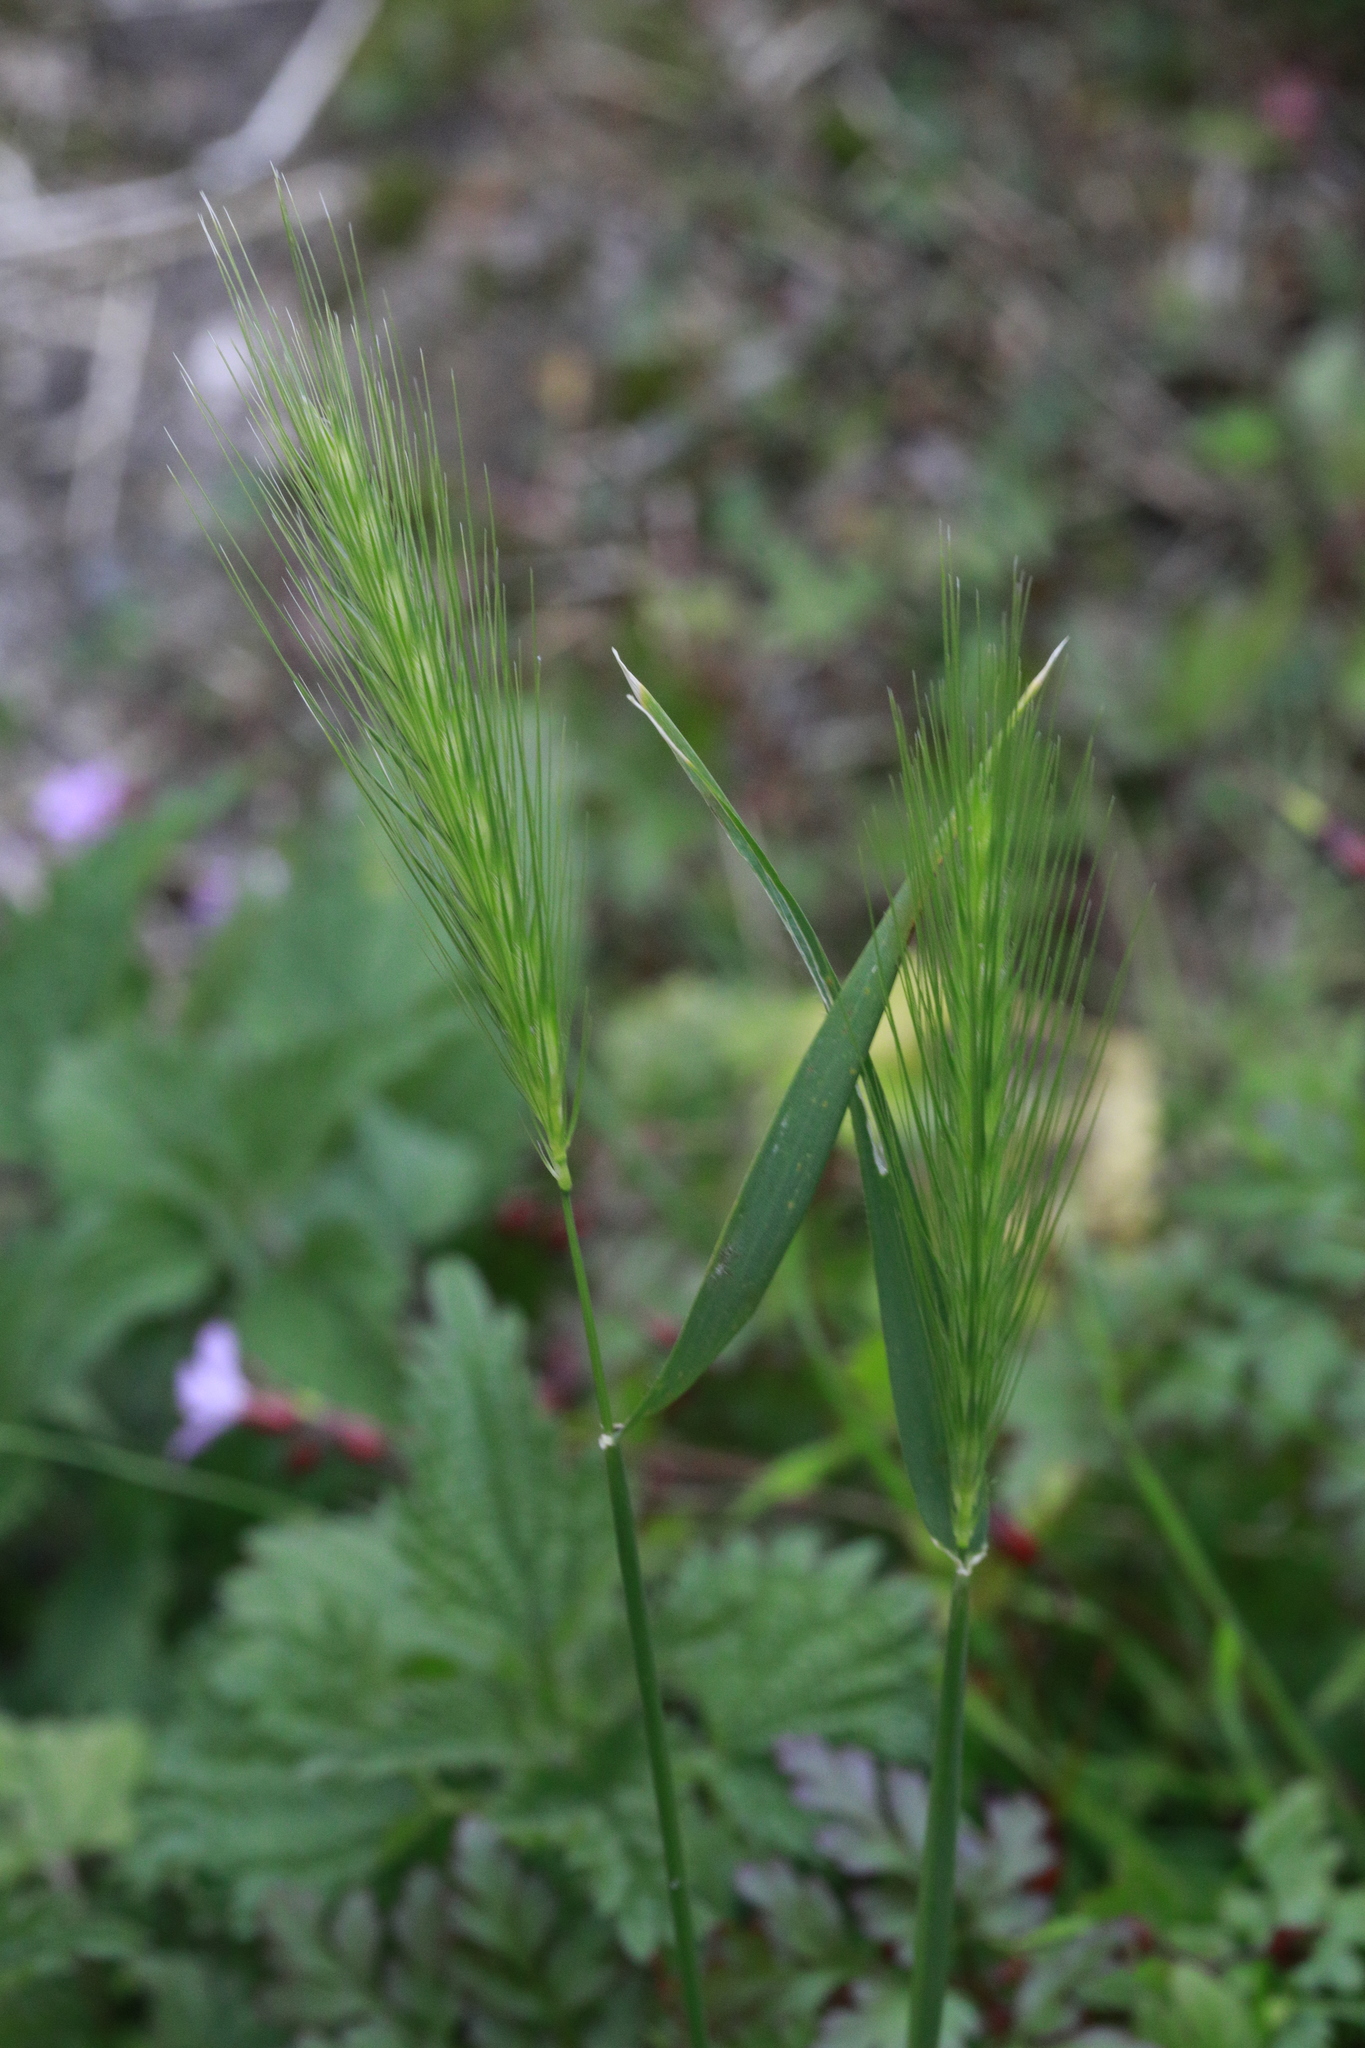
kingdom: Plantae
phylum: Tracheophyta
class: Liliopsida
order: Poales
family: Poaceae
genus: Hordeum
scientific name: Hordeum murinum
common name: Wall barley
